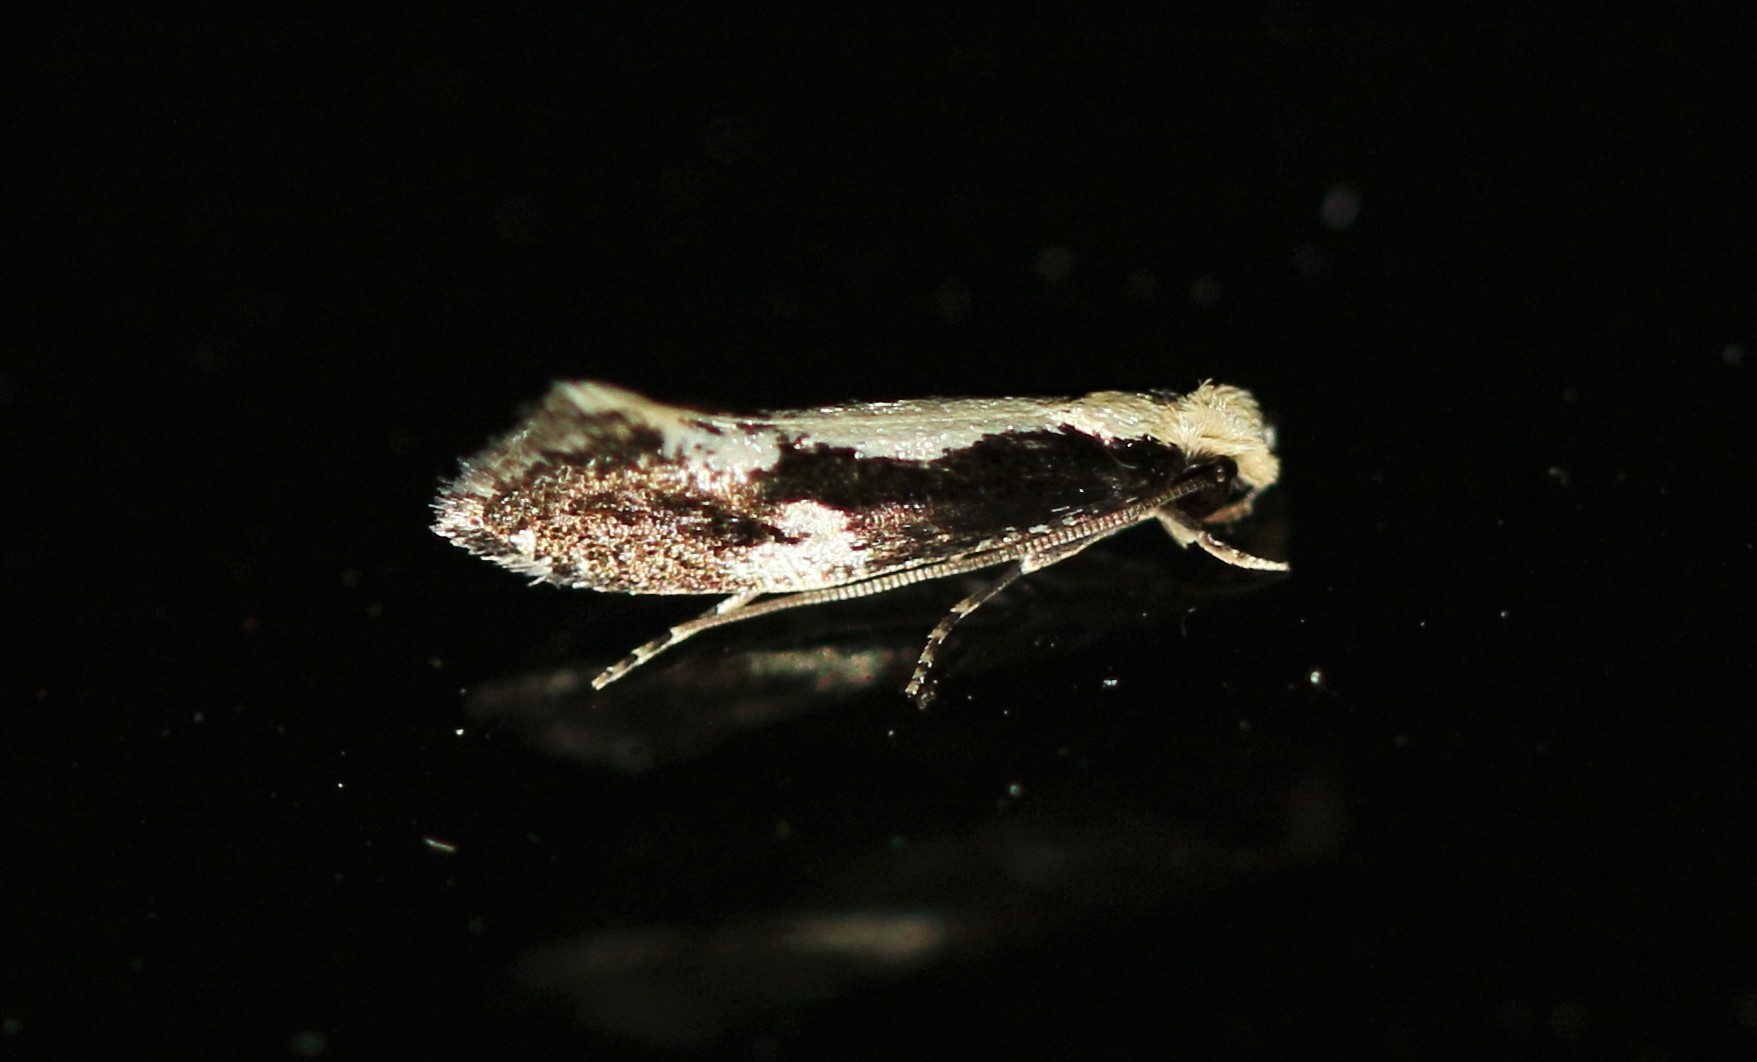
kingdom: Animalia
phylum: Arthropoda
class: Insecta
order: Lepidoptera
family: Tineidae
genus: Monopis
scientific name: Monopis dorsistrigella
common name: Skunkback monopis moth
